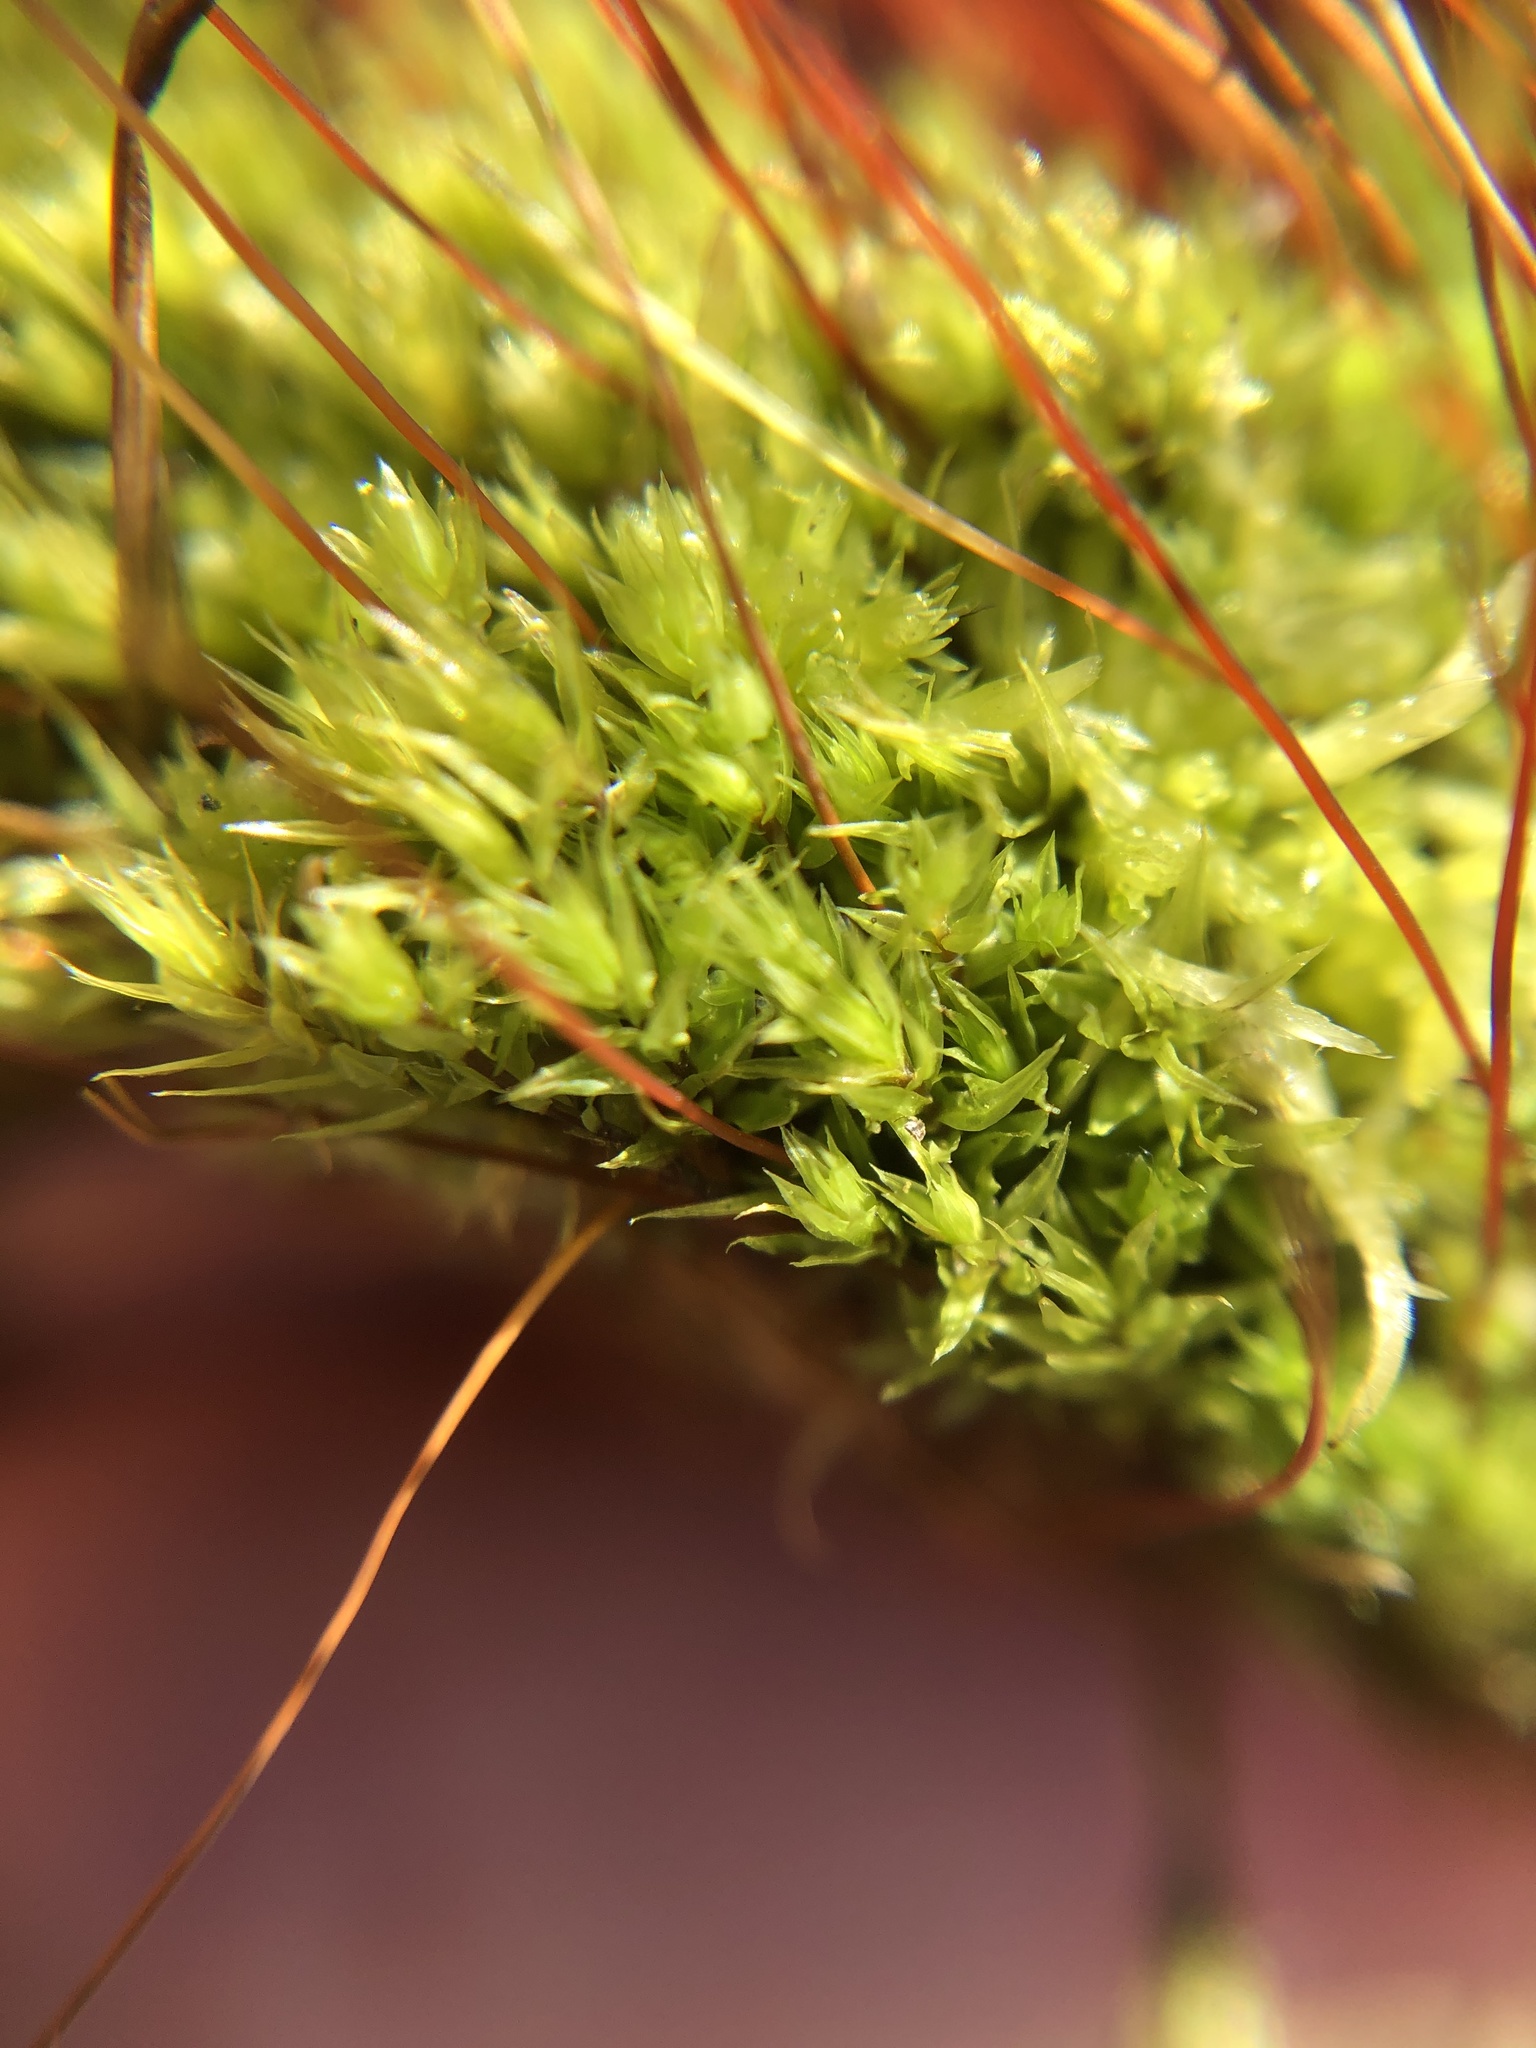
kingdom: Plantae
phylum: Bryophyta
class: Bryopsida
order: Dicranales
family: Ditrichaceae
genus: Ceratodon
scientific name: Ceratodon purpureus
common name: Redshank
